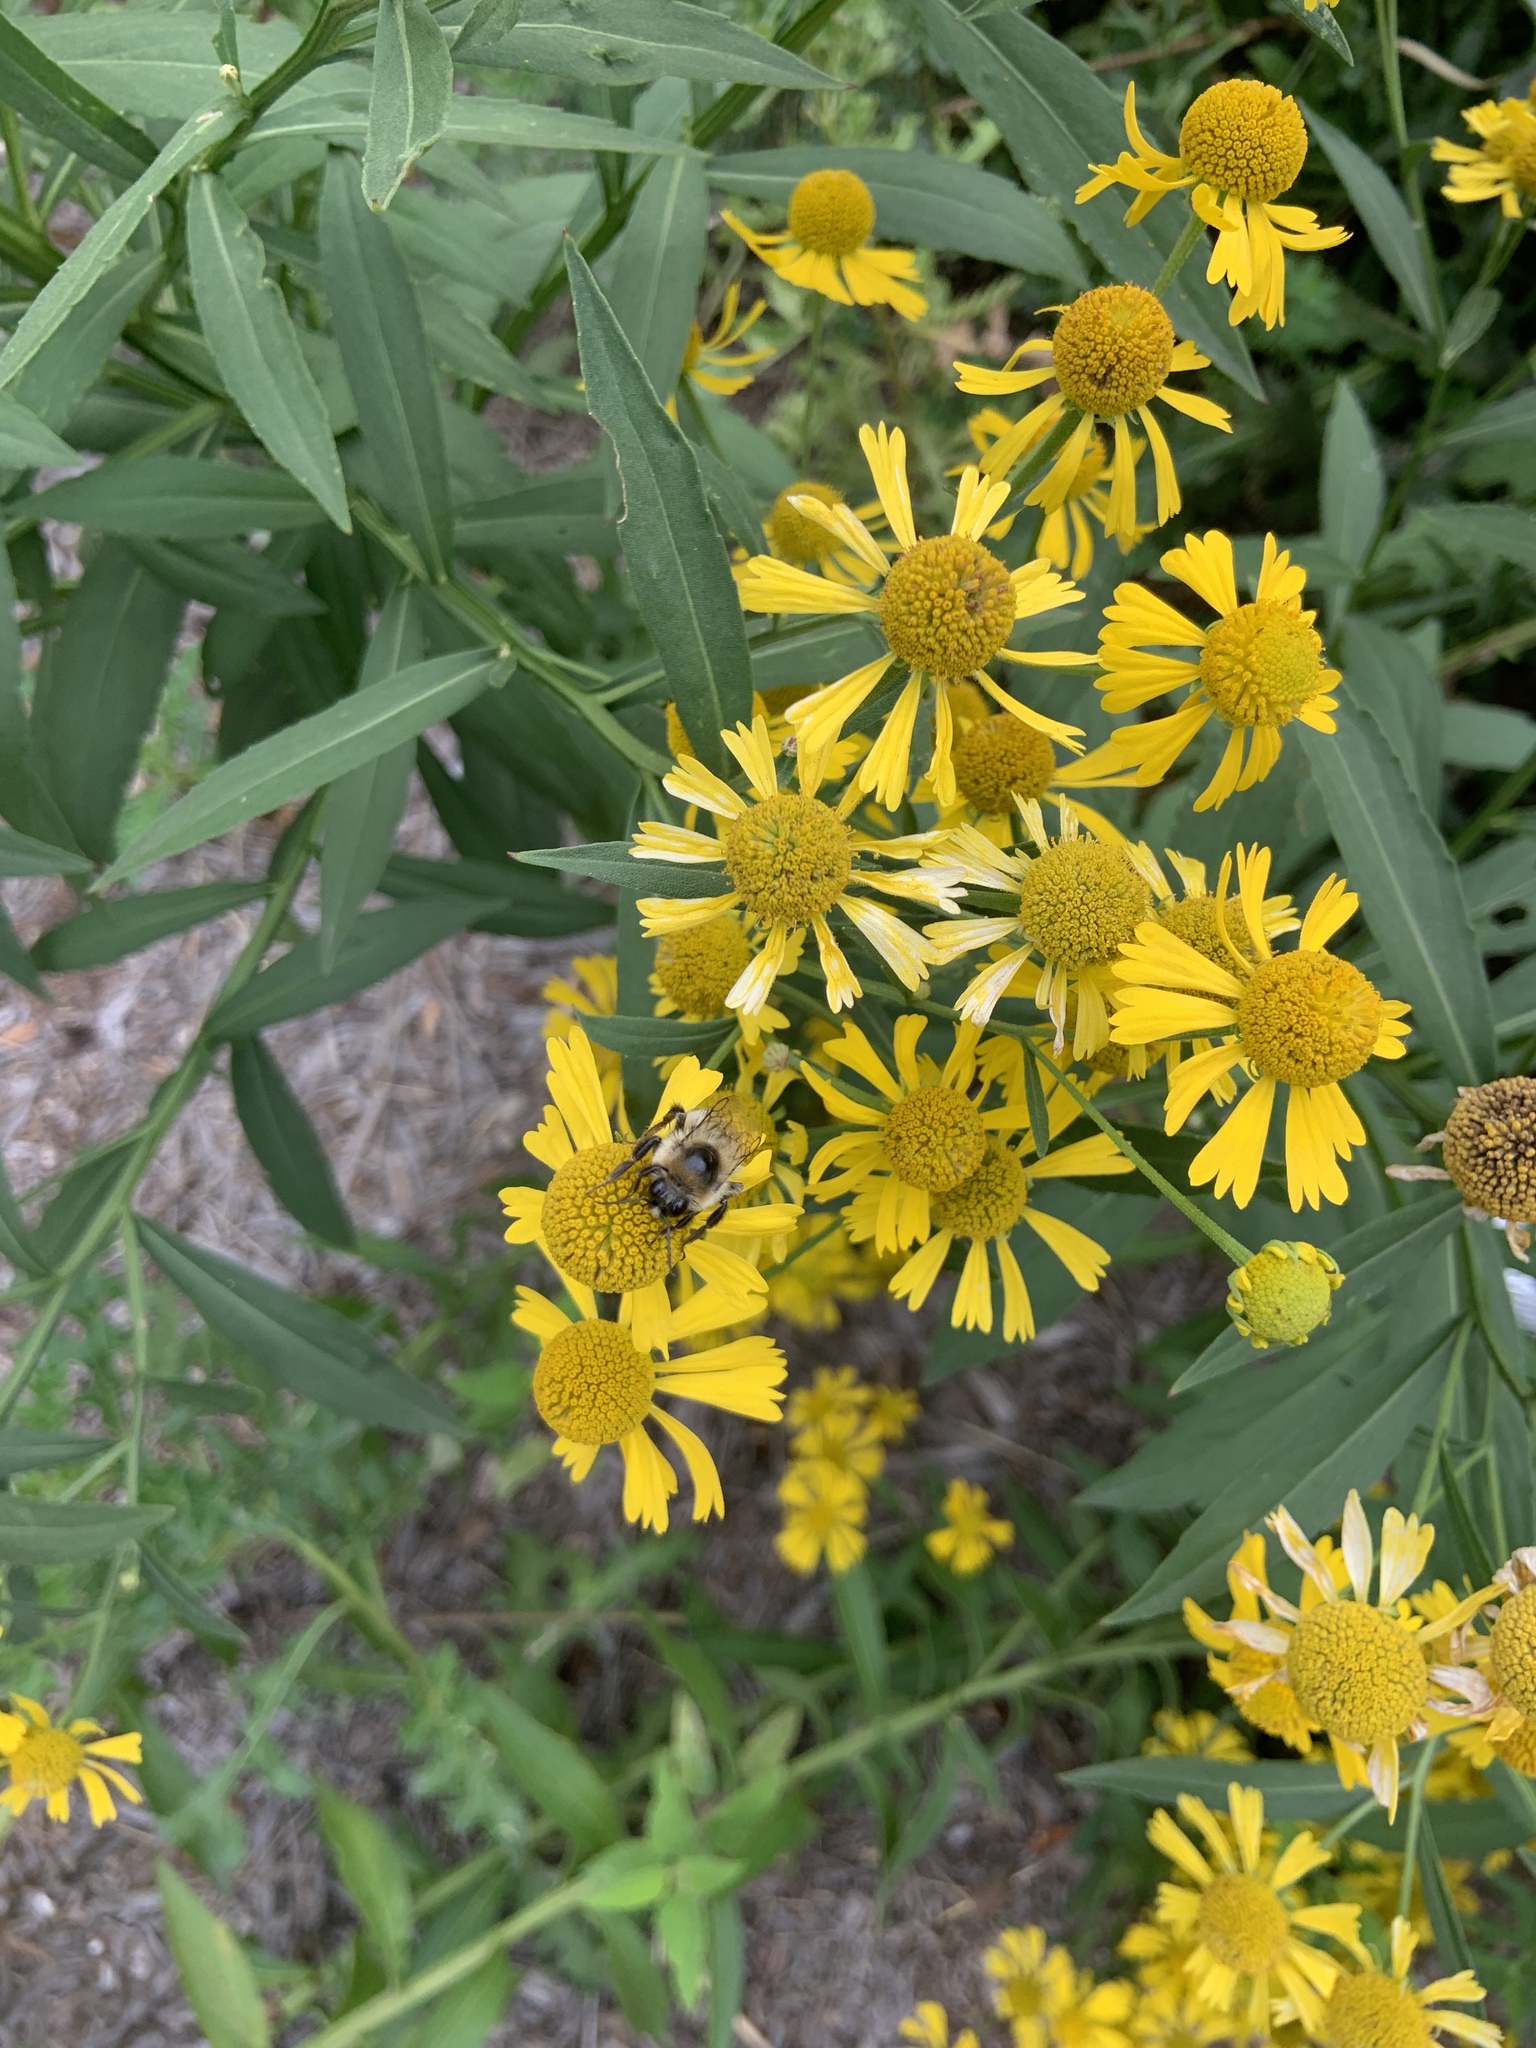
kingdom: Animalia
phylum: Arthropoda
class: Insecta
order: Hymenoptera
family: Apidae
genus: Bombus
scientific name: Bombus rufocinctus
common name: Red-belted bumble bee
